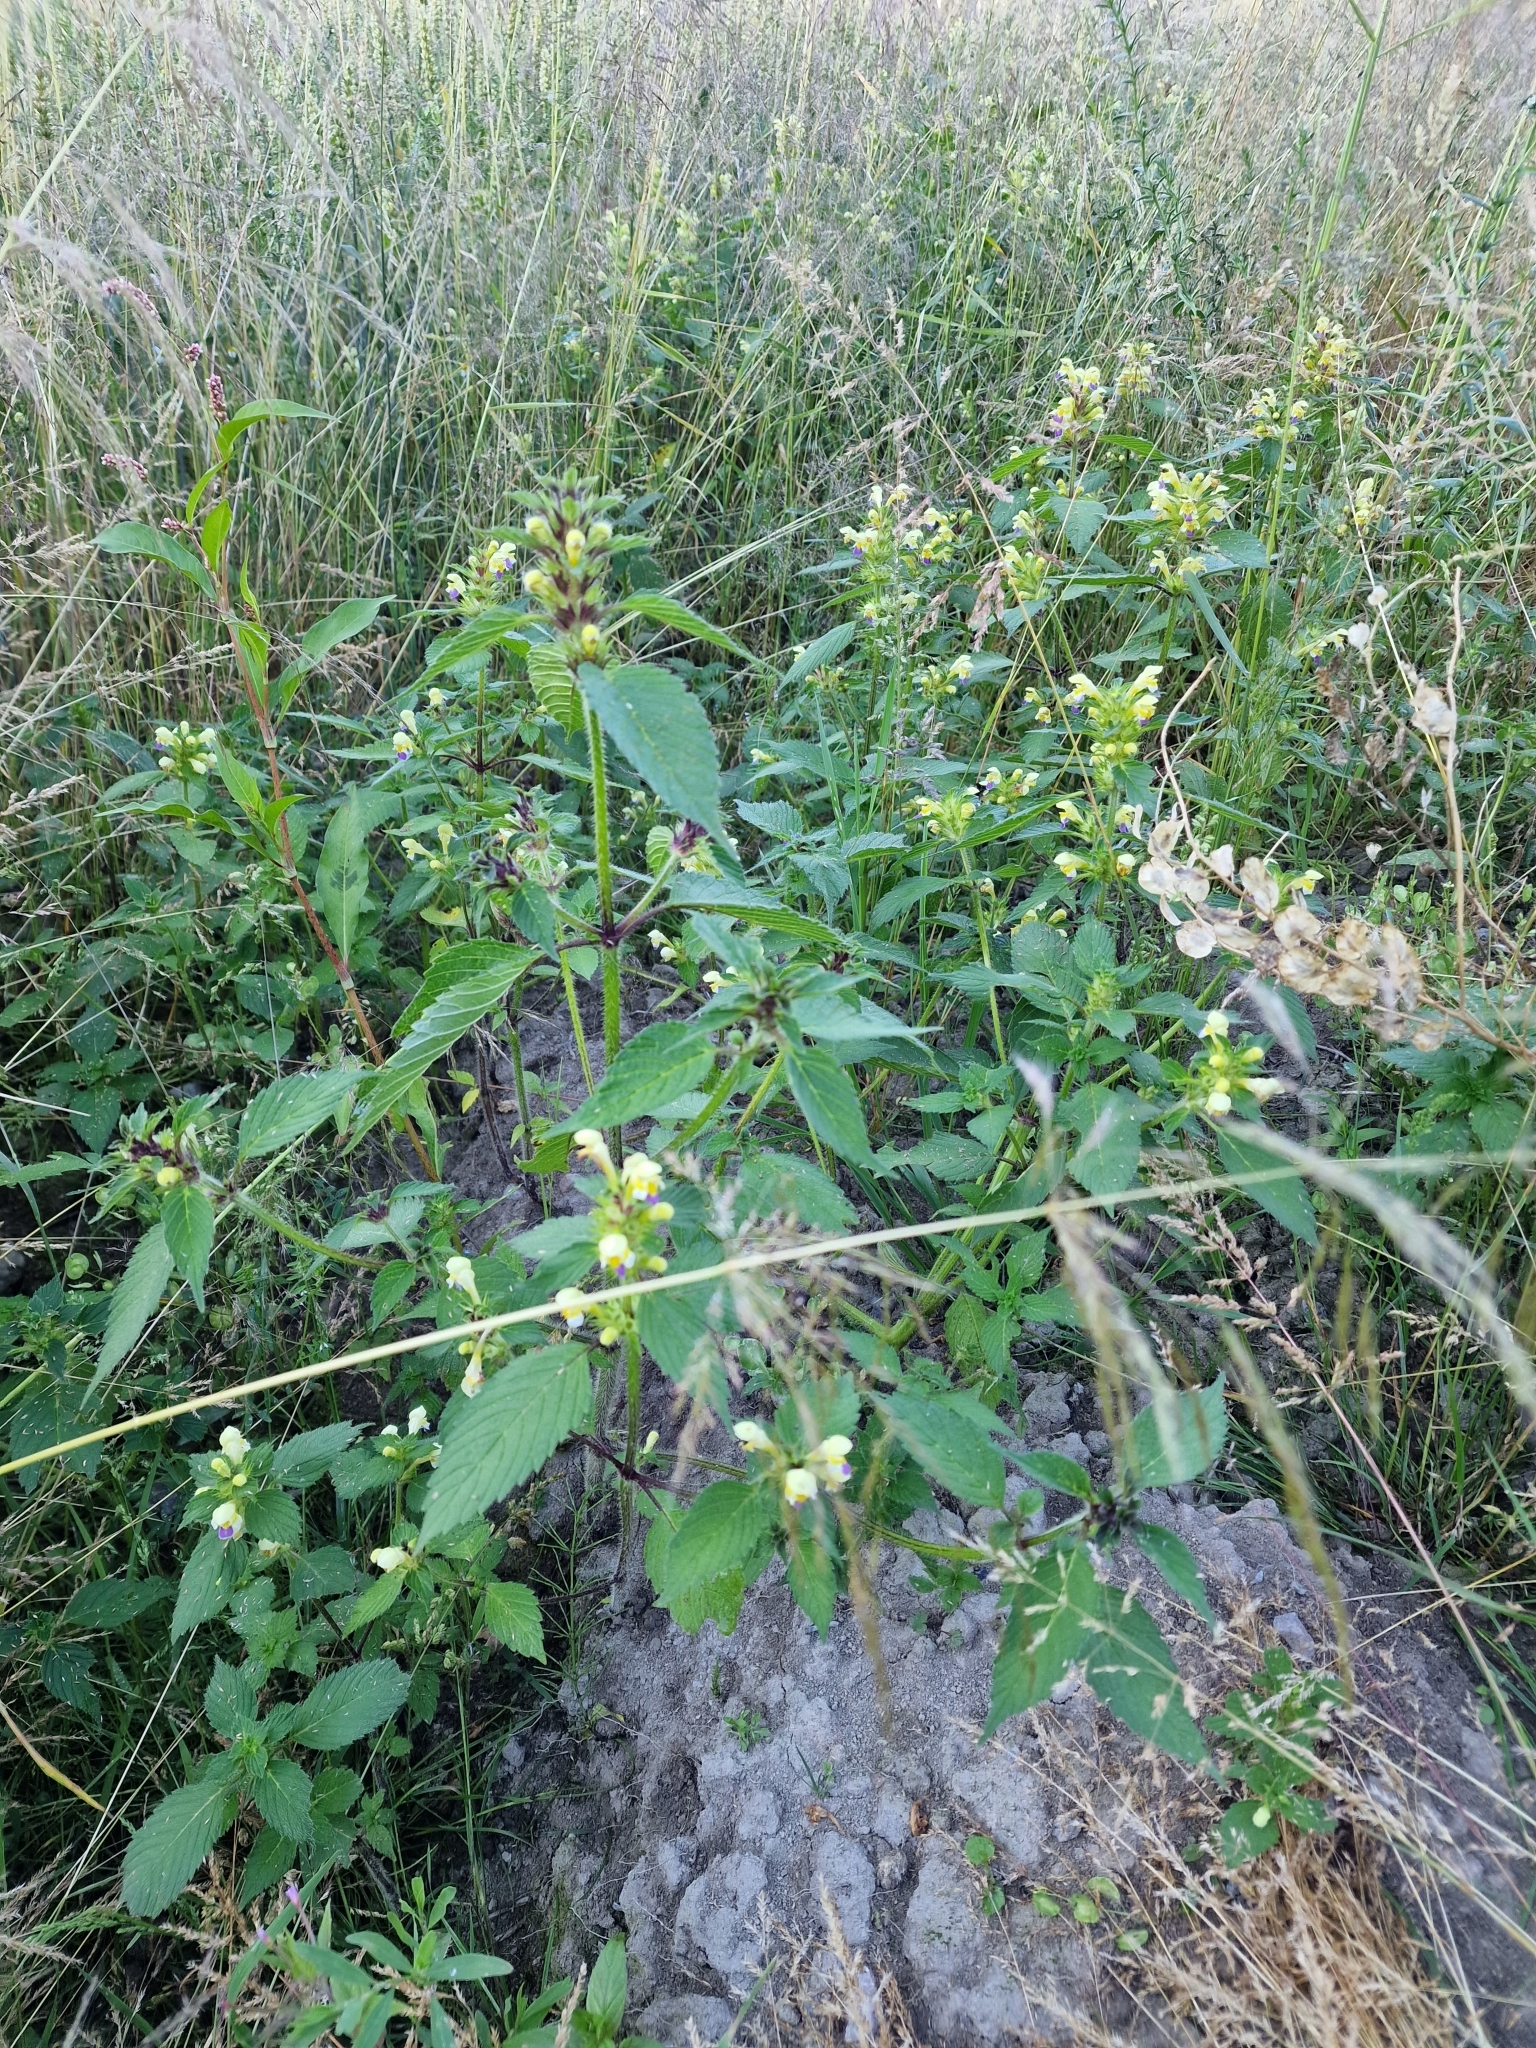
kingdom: Plantae
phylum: Tracheophyta
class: Magnoliopsida
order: Lamiales
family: Lamiaceae
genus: Galeopsis
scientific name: Galeopsis speciosa
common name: Large-flowered hemp-nettle
